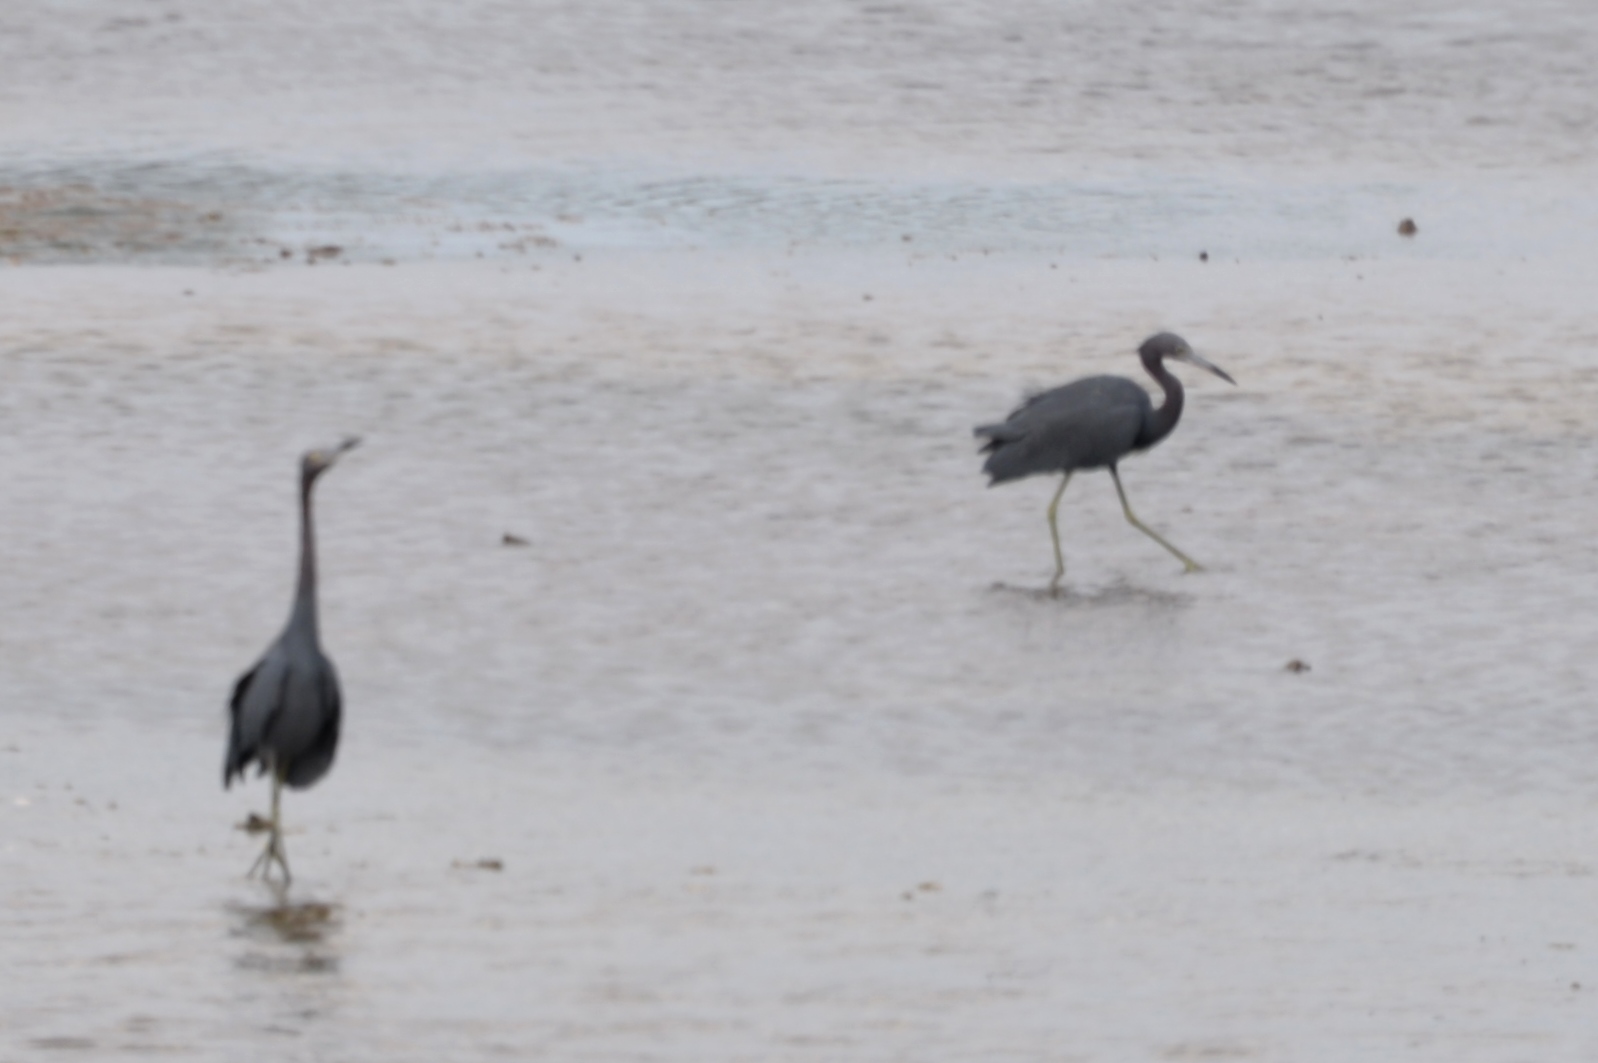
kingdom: Animalia
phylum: Chordata
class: Aves
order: Pelecaniformes
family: Ardeidae
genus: Egretta
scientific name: Egretta caerulea
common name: Little blue heron
